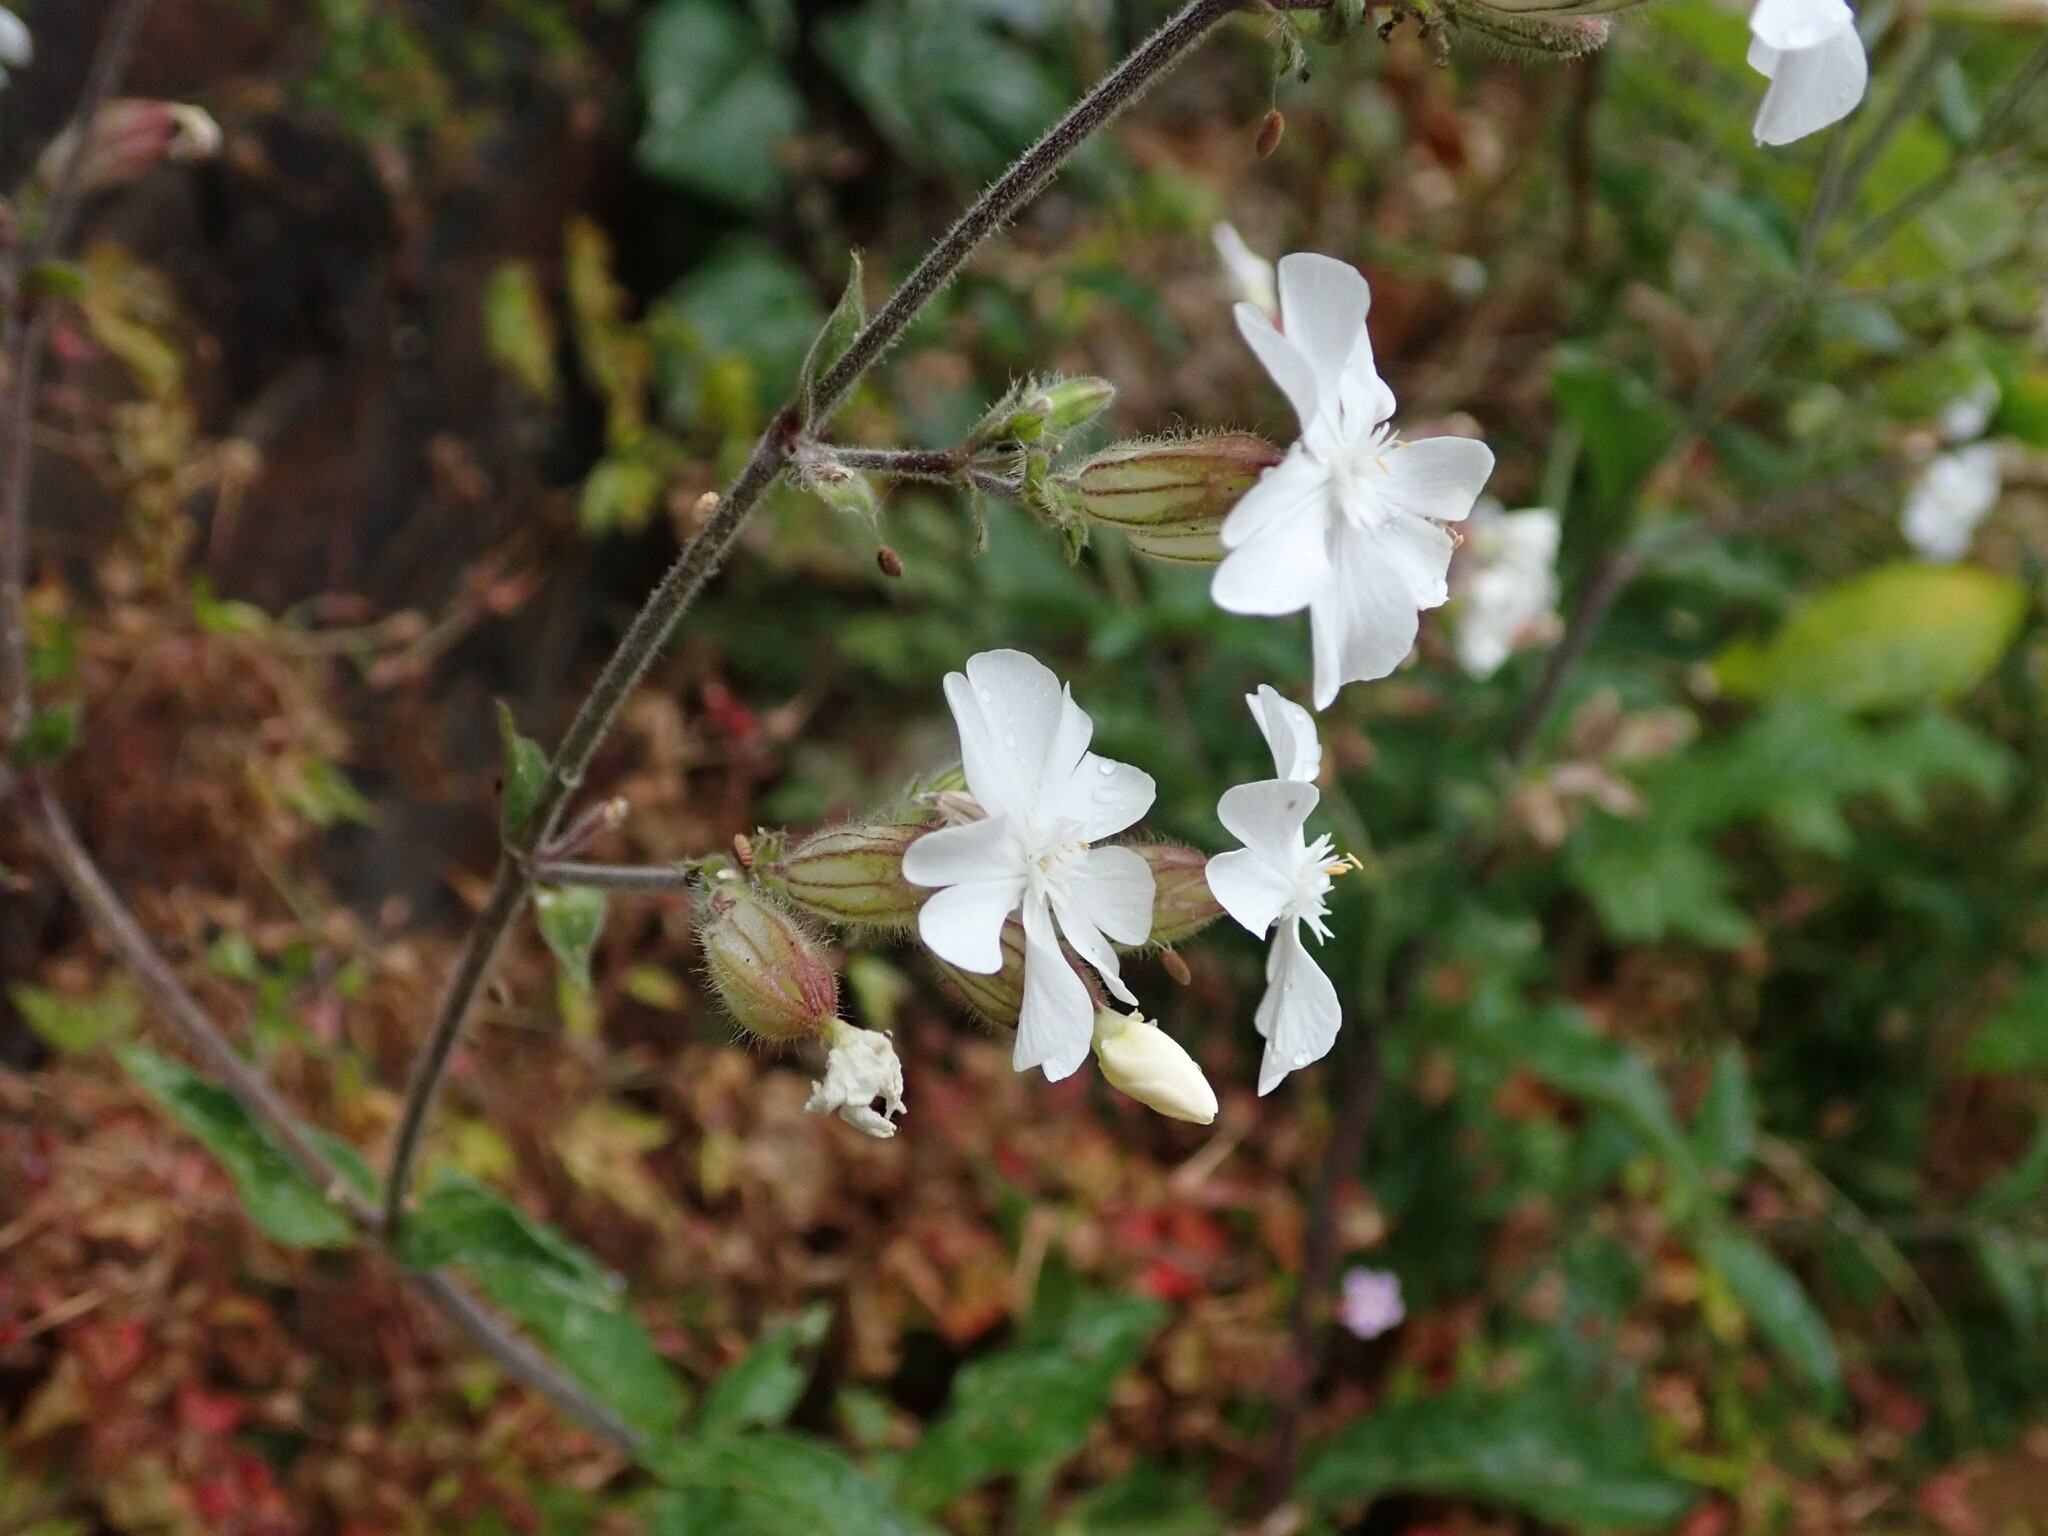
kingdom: Plantae
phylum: Tracheophyta
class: Magnoliopsida
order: Caryophyllales
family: Caryophyllaceae
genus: Silene
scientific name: Silene latifolia
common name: White campion
